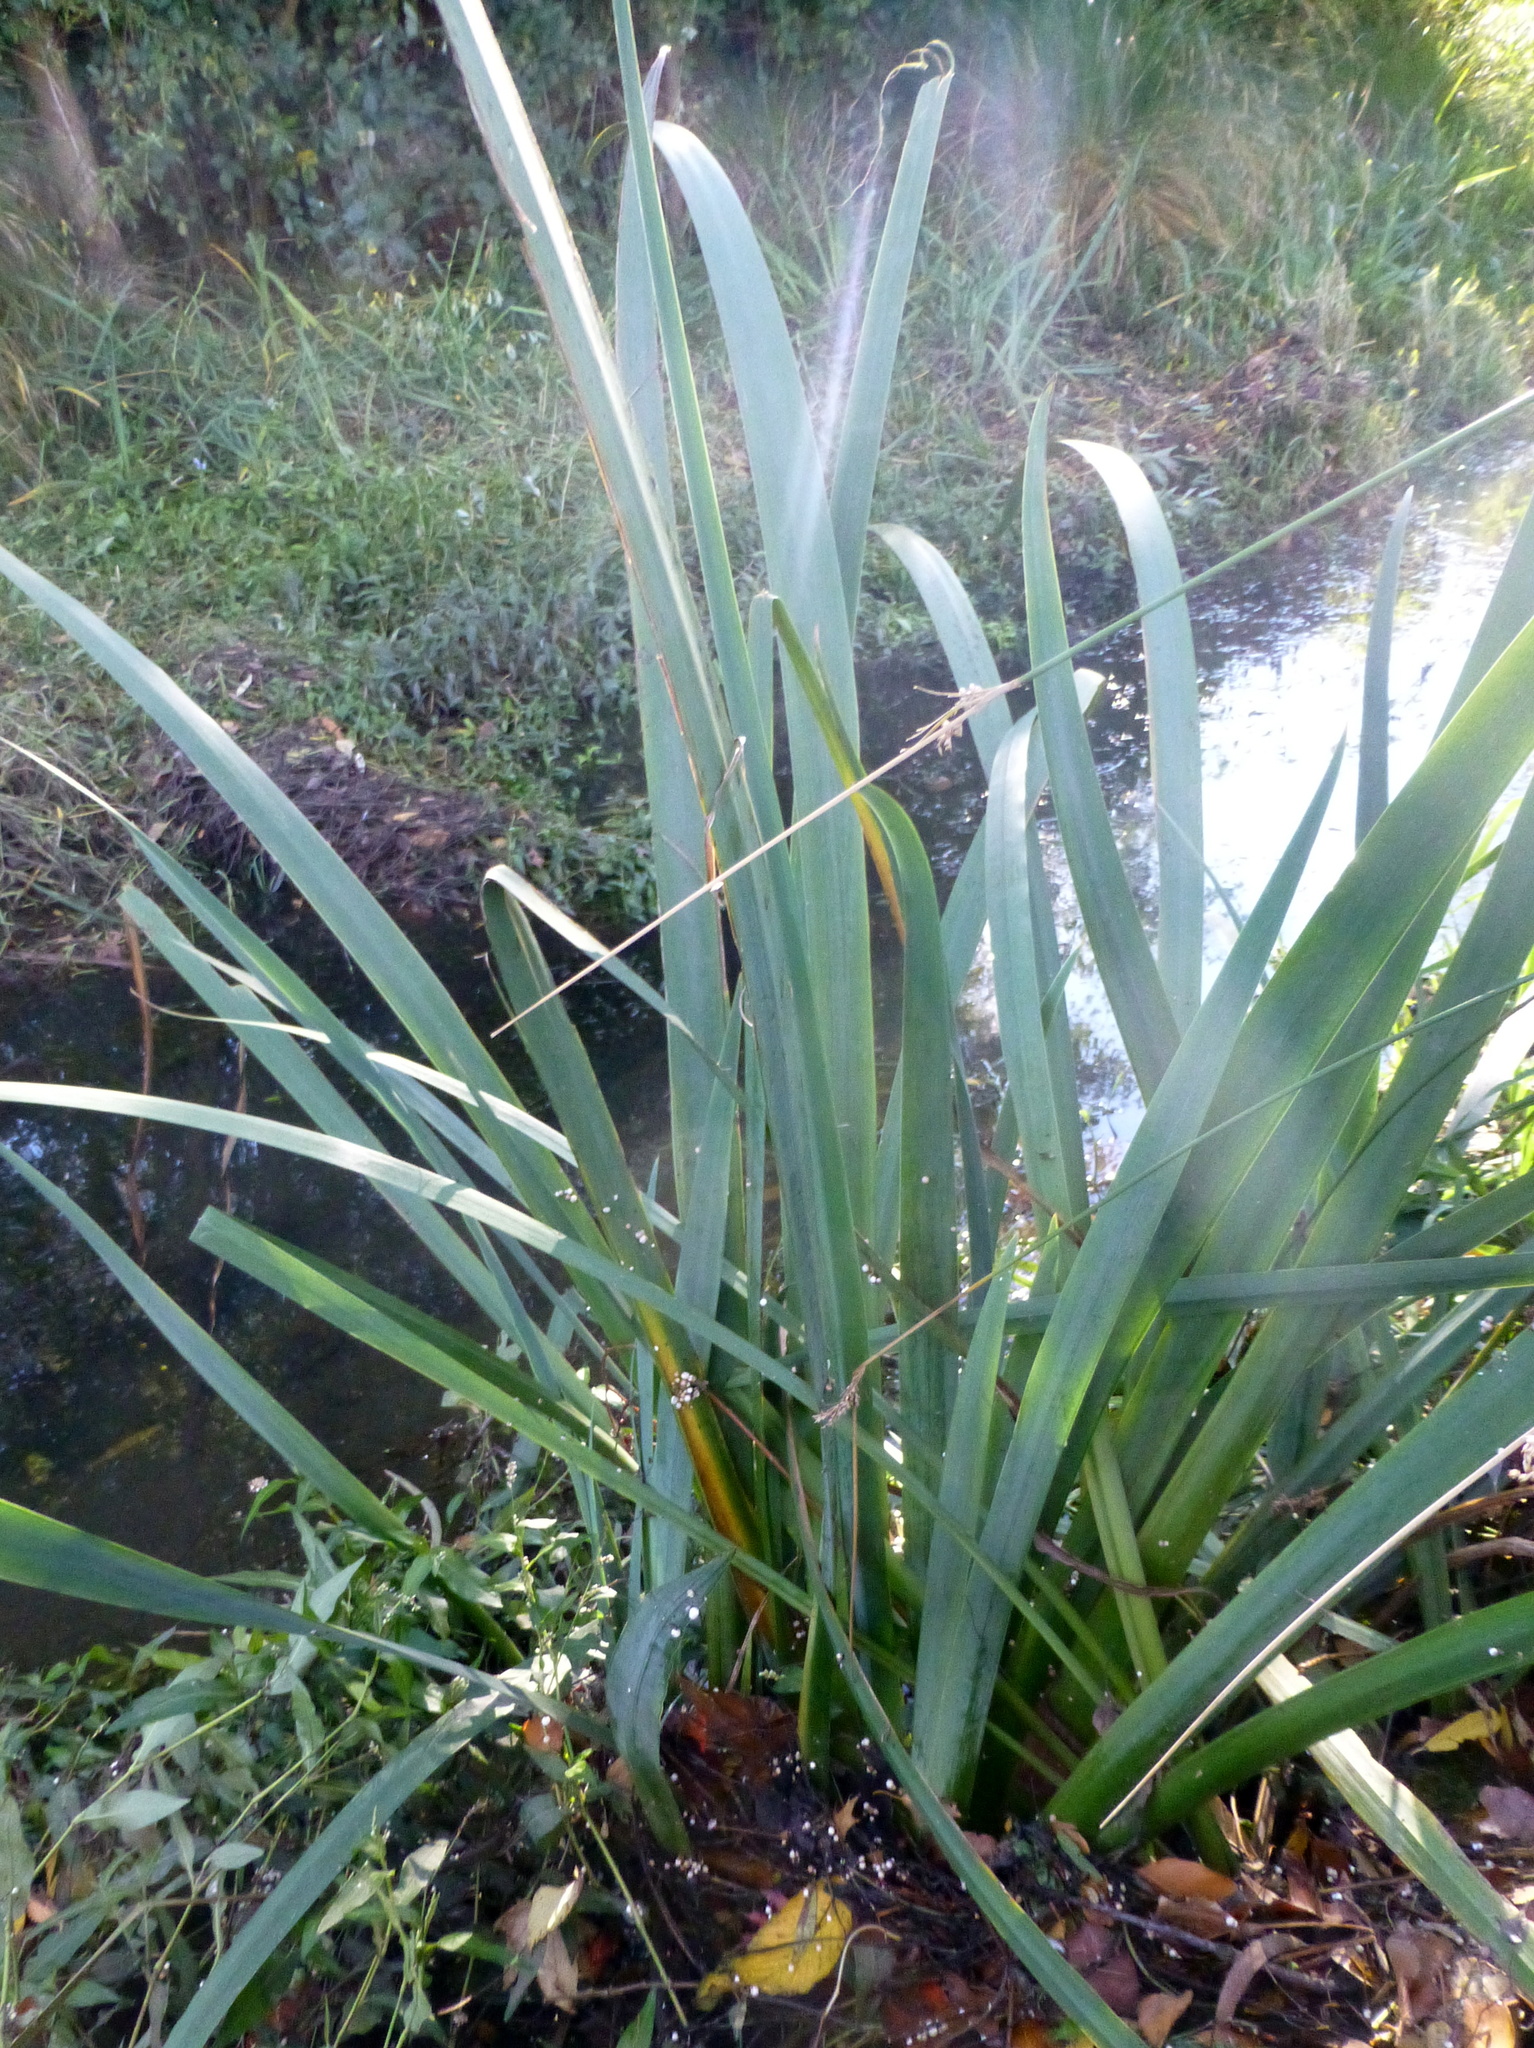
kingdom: Plantae
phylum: Tracheophyta
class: Liliopsida
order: Asparagales
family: Iridaceae
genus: Iris
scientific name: Iris pseudacorus
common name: Yellow flag
